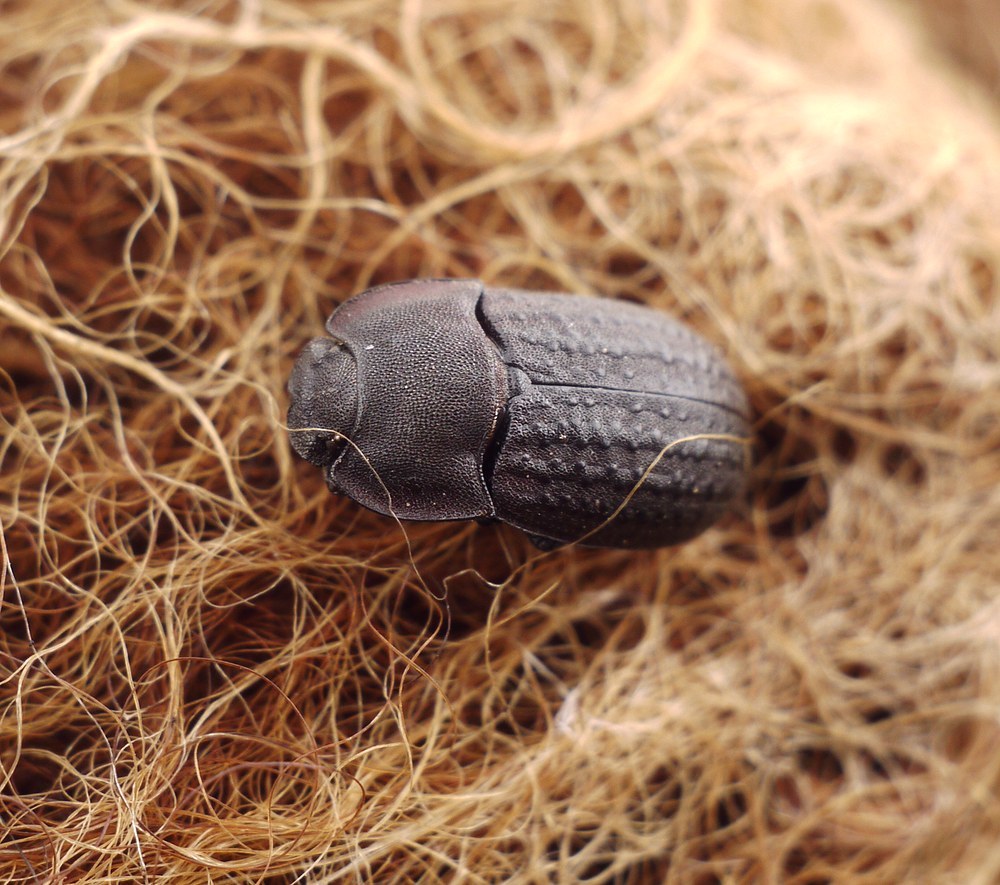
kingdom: Animalia
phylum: Arthropoda
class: Insecta
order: Coleoptera
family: Tenebrionidae
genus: Opatrum
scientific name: Opatrum sabulosum
